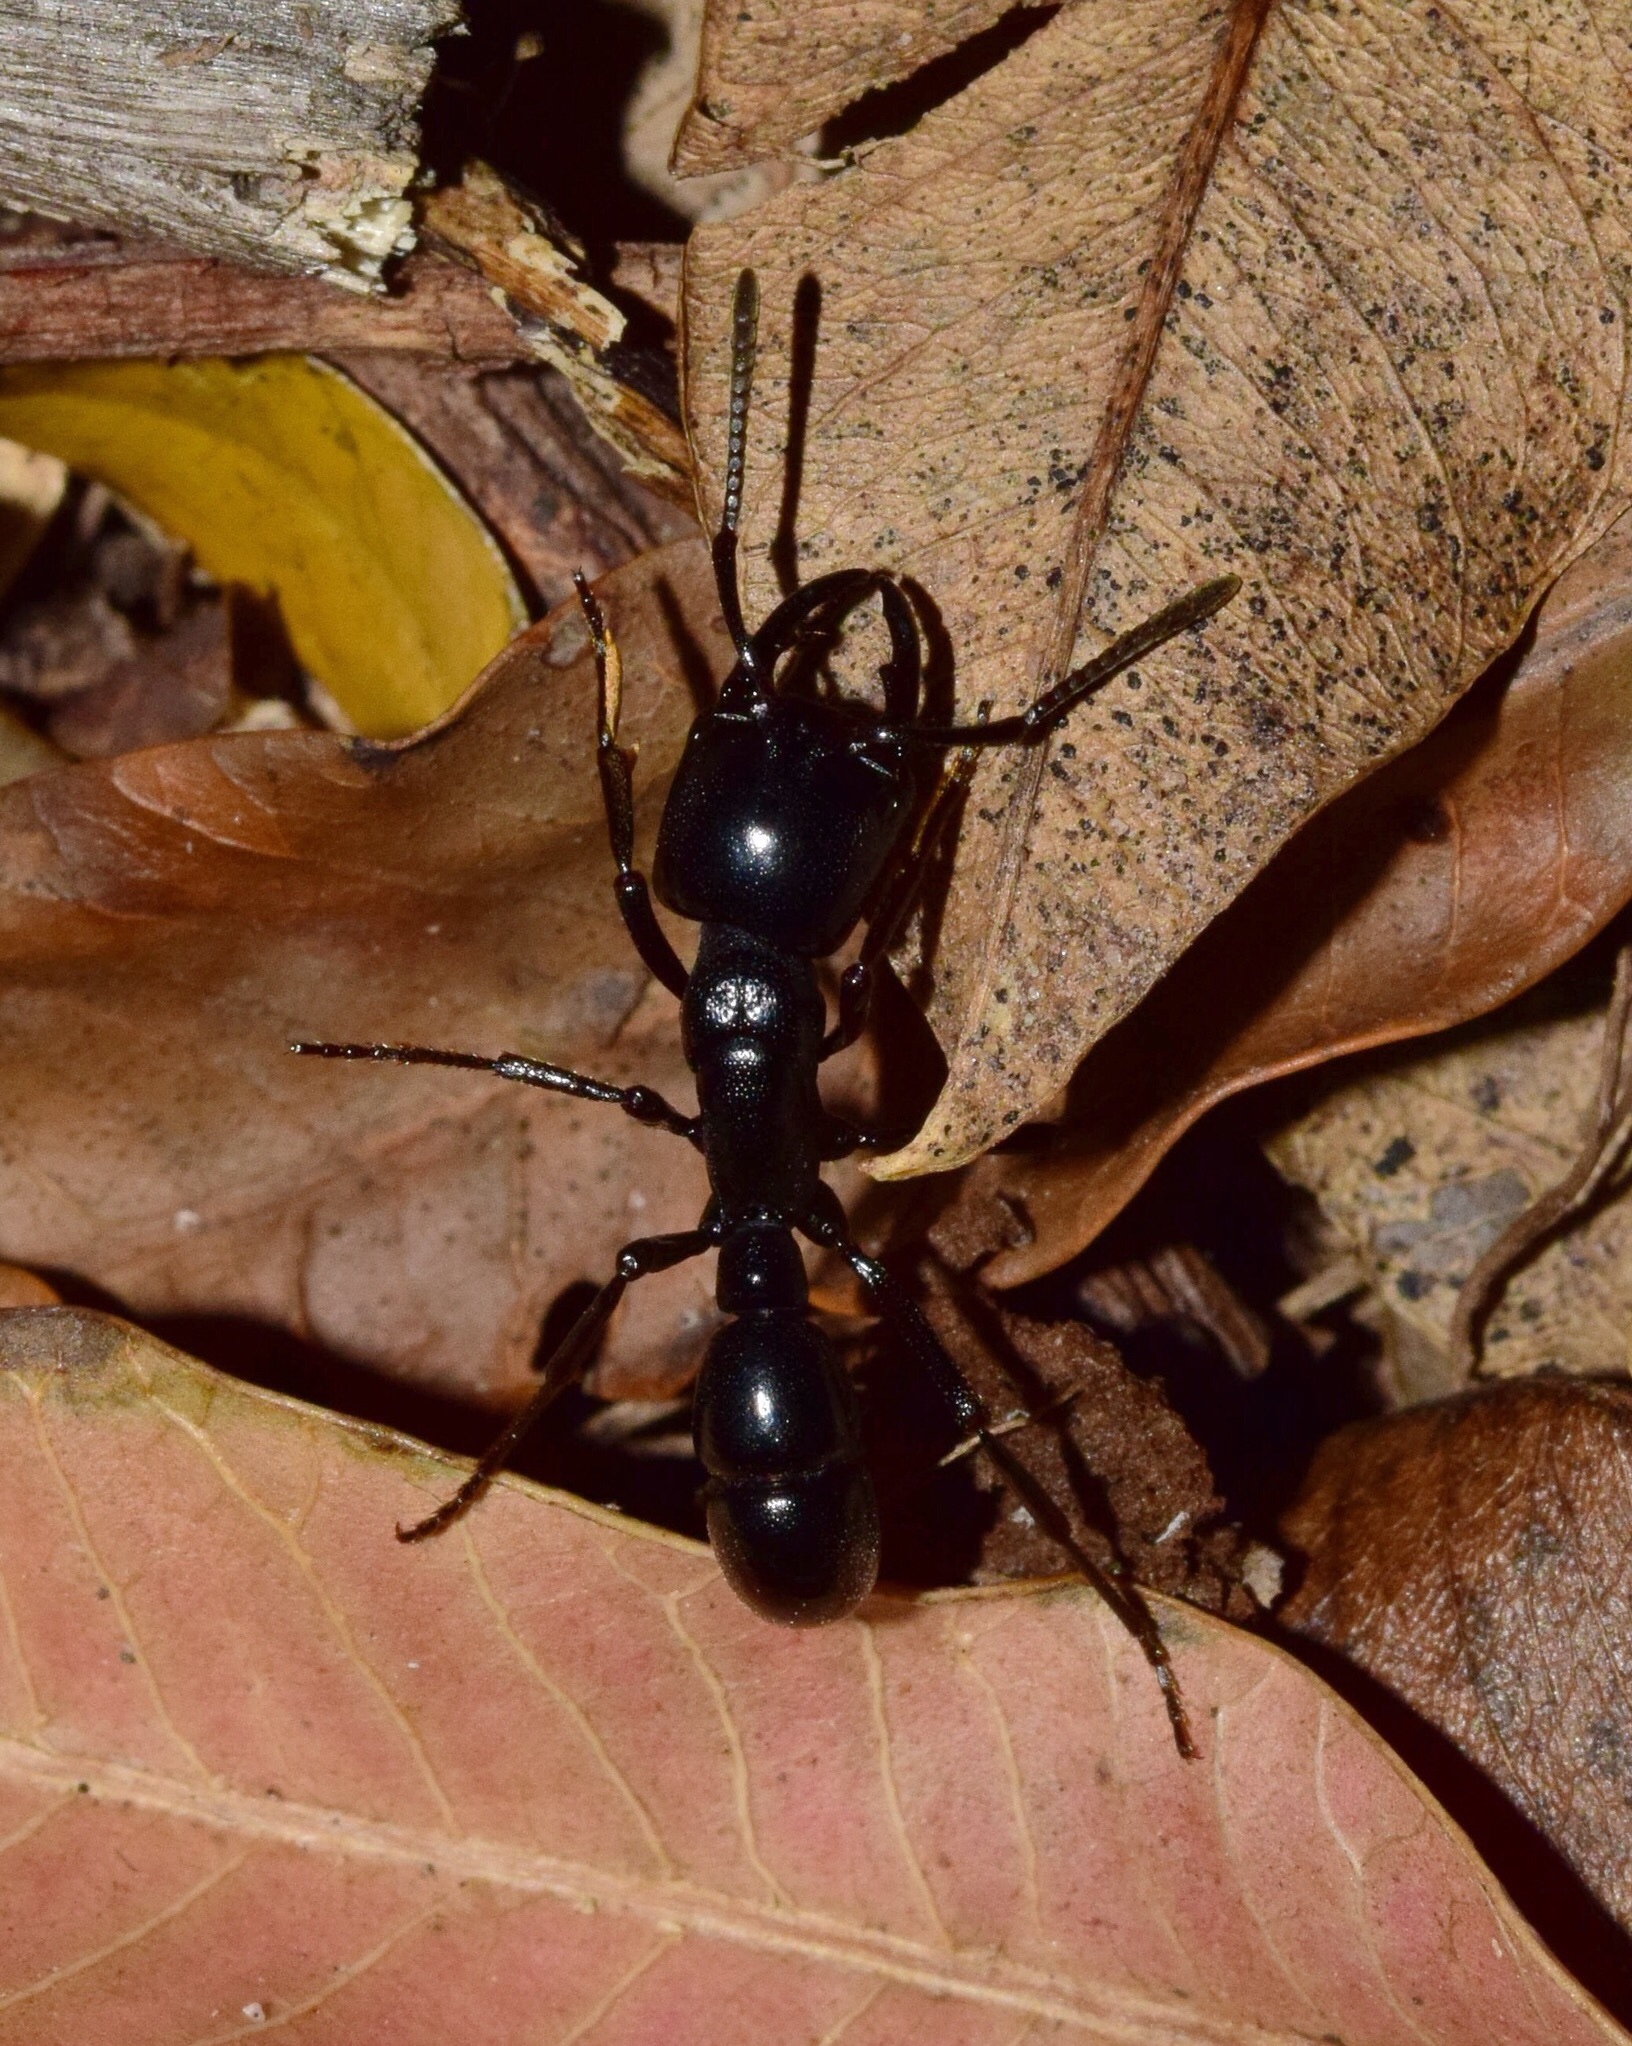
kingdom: Animalia
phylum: Arthropoda
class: Insecta
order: Hymenoptera
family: Formicidae
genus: Plectroctena
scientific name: Plectroctena mandibularis
